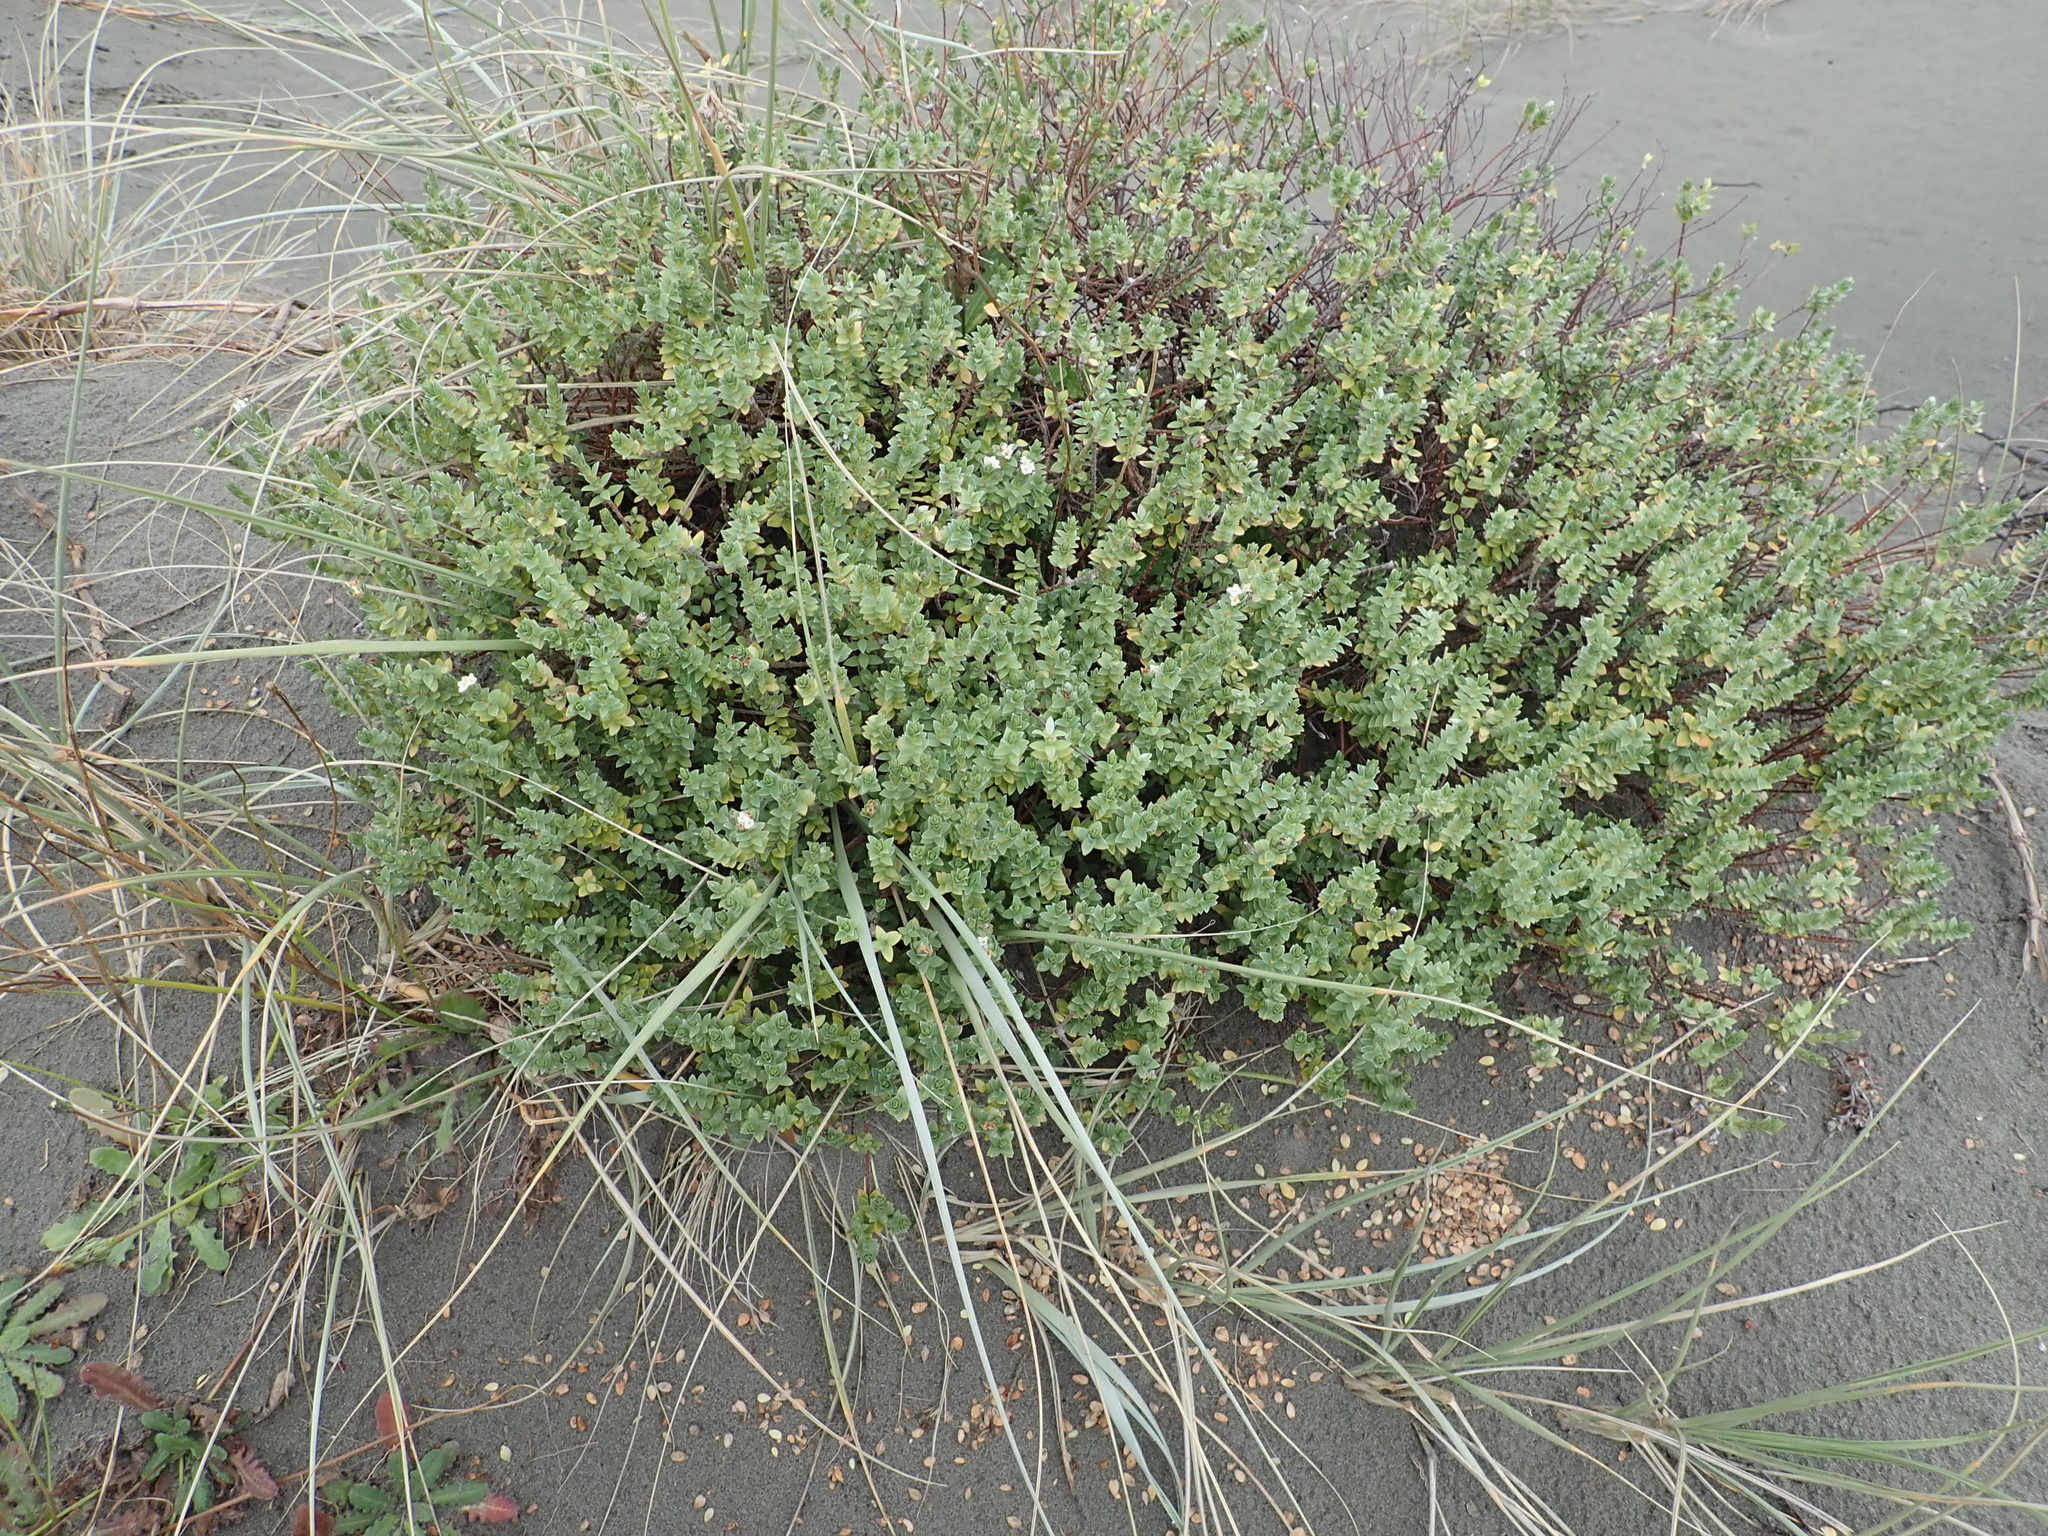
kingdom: Plantae
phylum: Tracheophyta
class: Magnoliopsida
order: Malvales
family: Thymelaeaceae
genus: Pimelea
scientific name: Pimelea villosa
